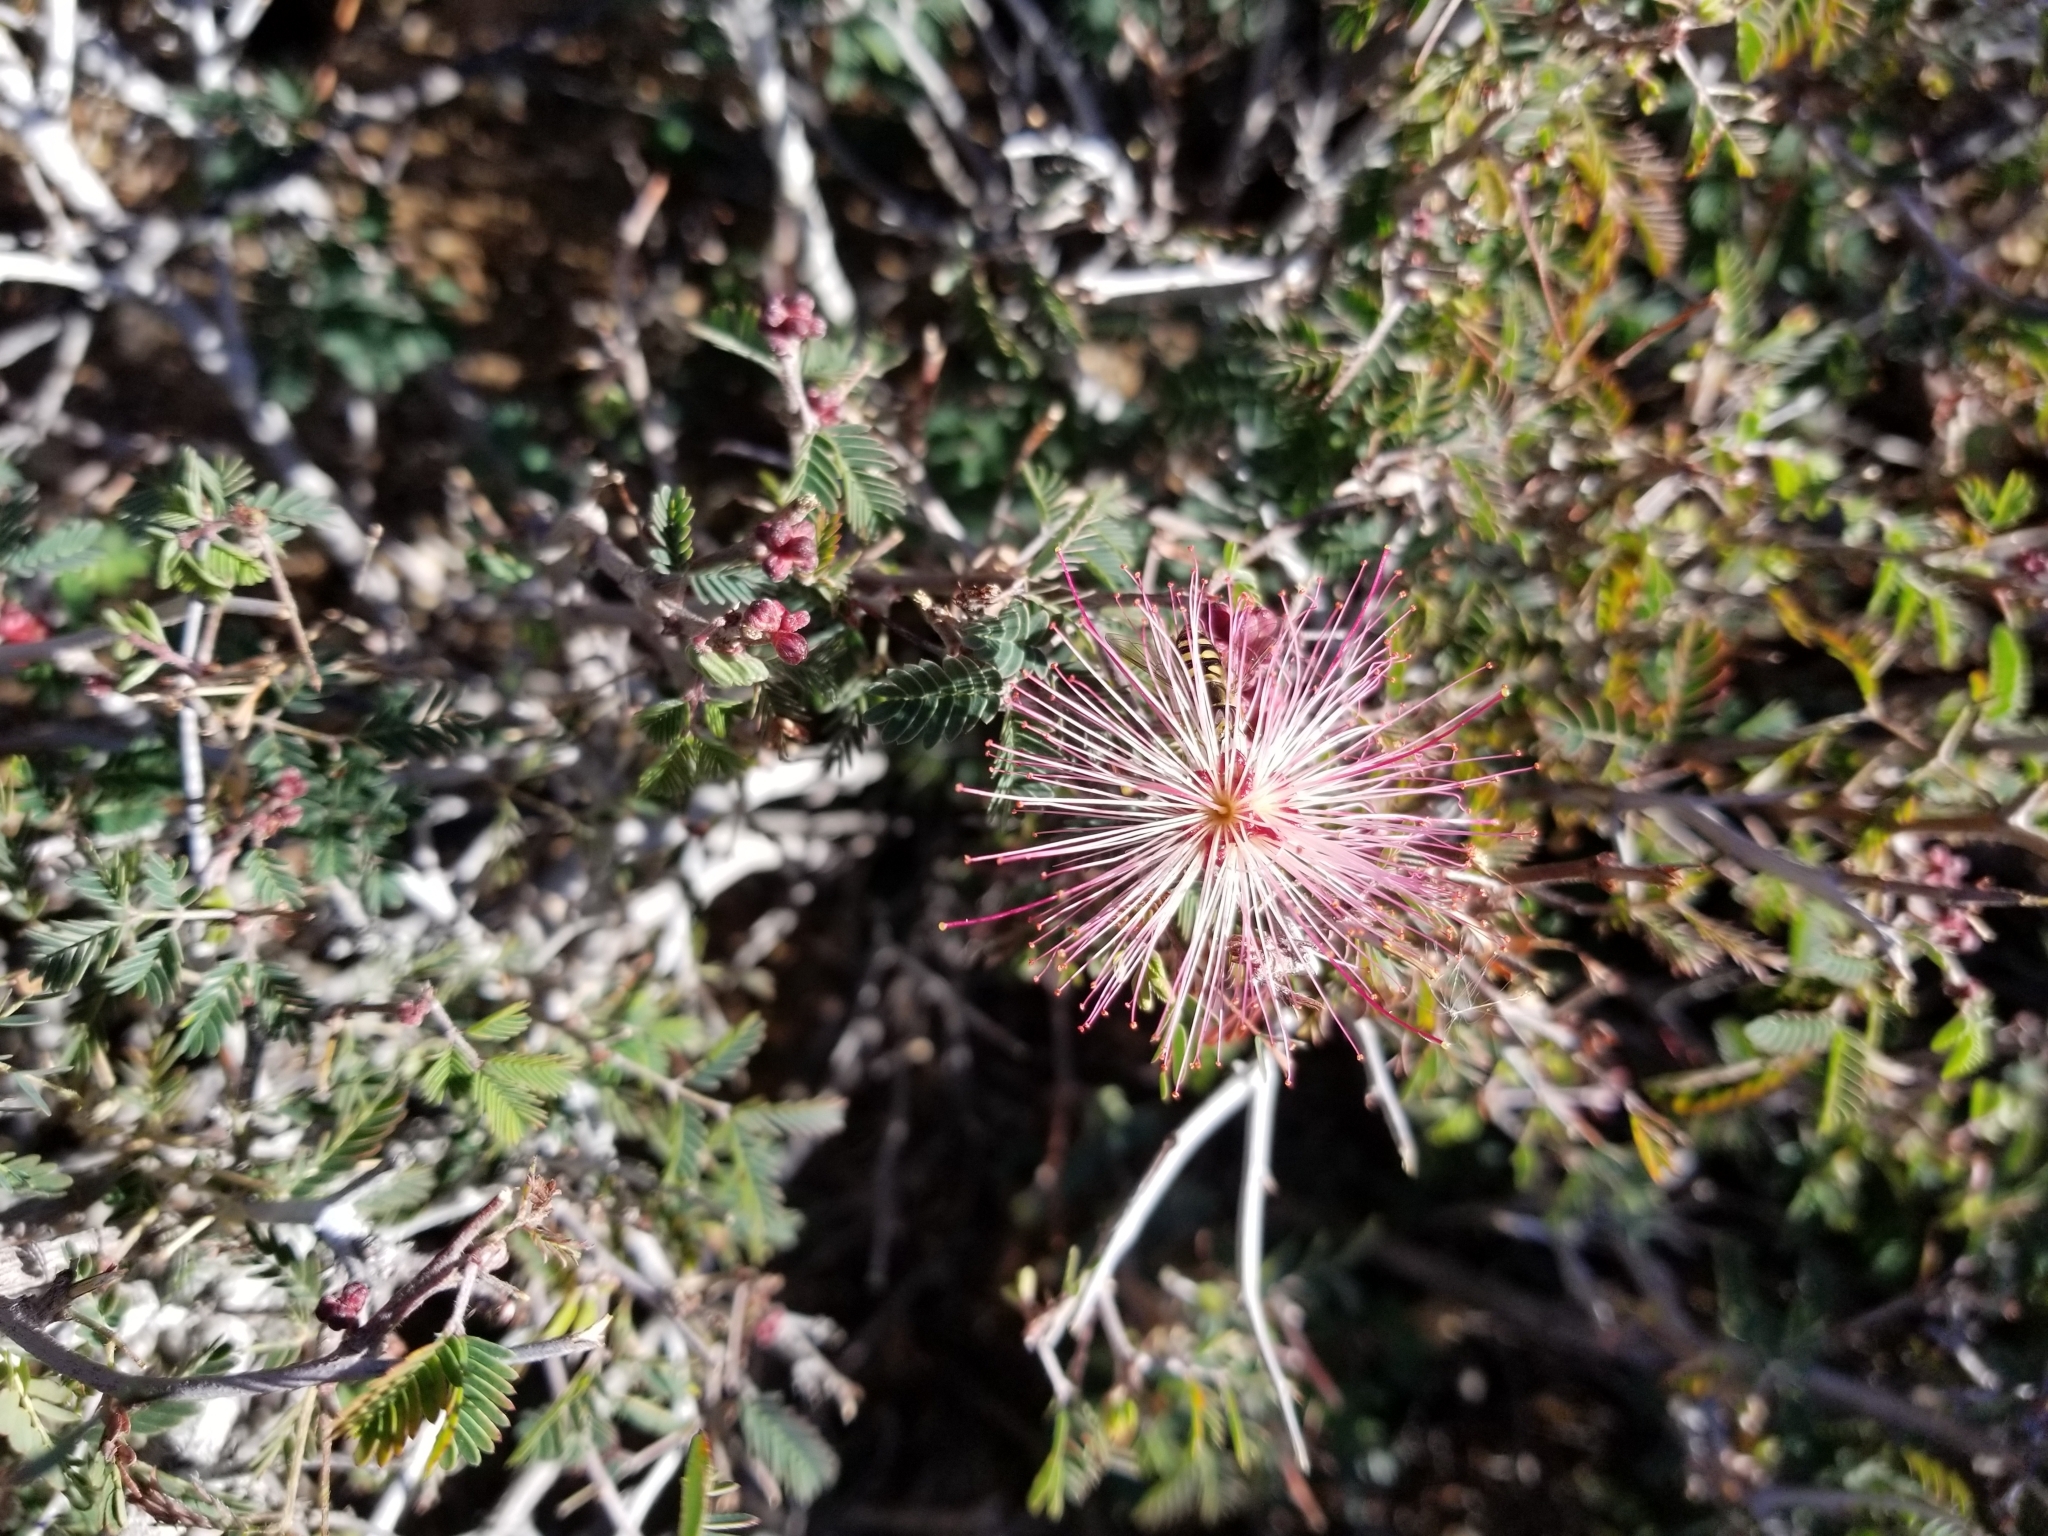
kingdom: Plantae
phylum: Tracheophyta
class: Magnoliopsida
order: Fabales
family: Fabaceae
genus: Calliandra
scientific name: Calliandra eriophylla
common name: Fairy-duster
